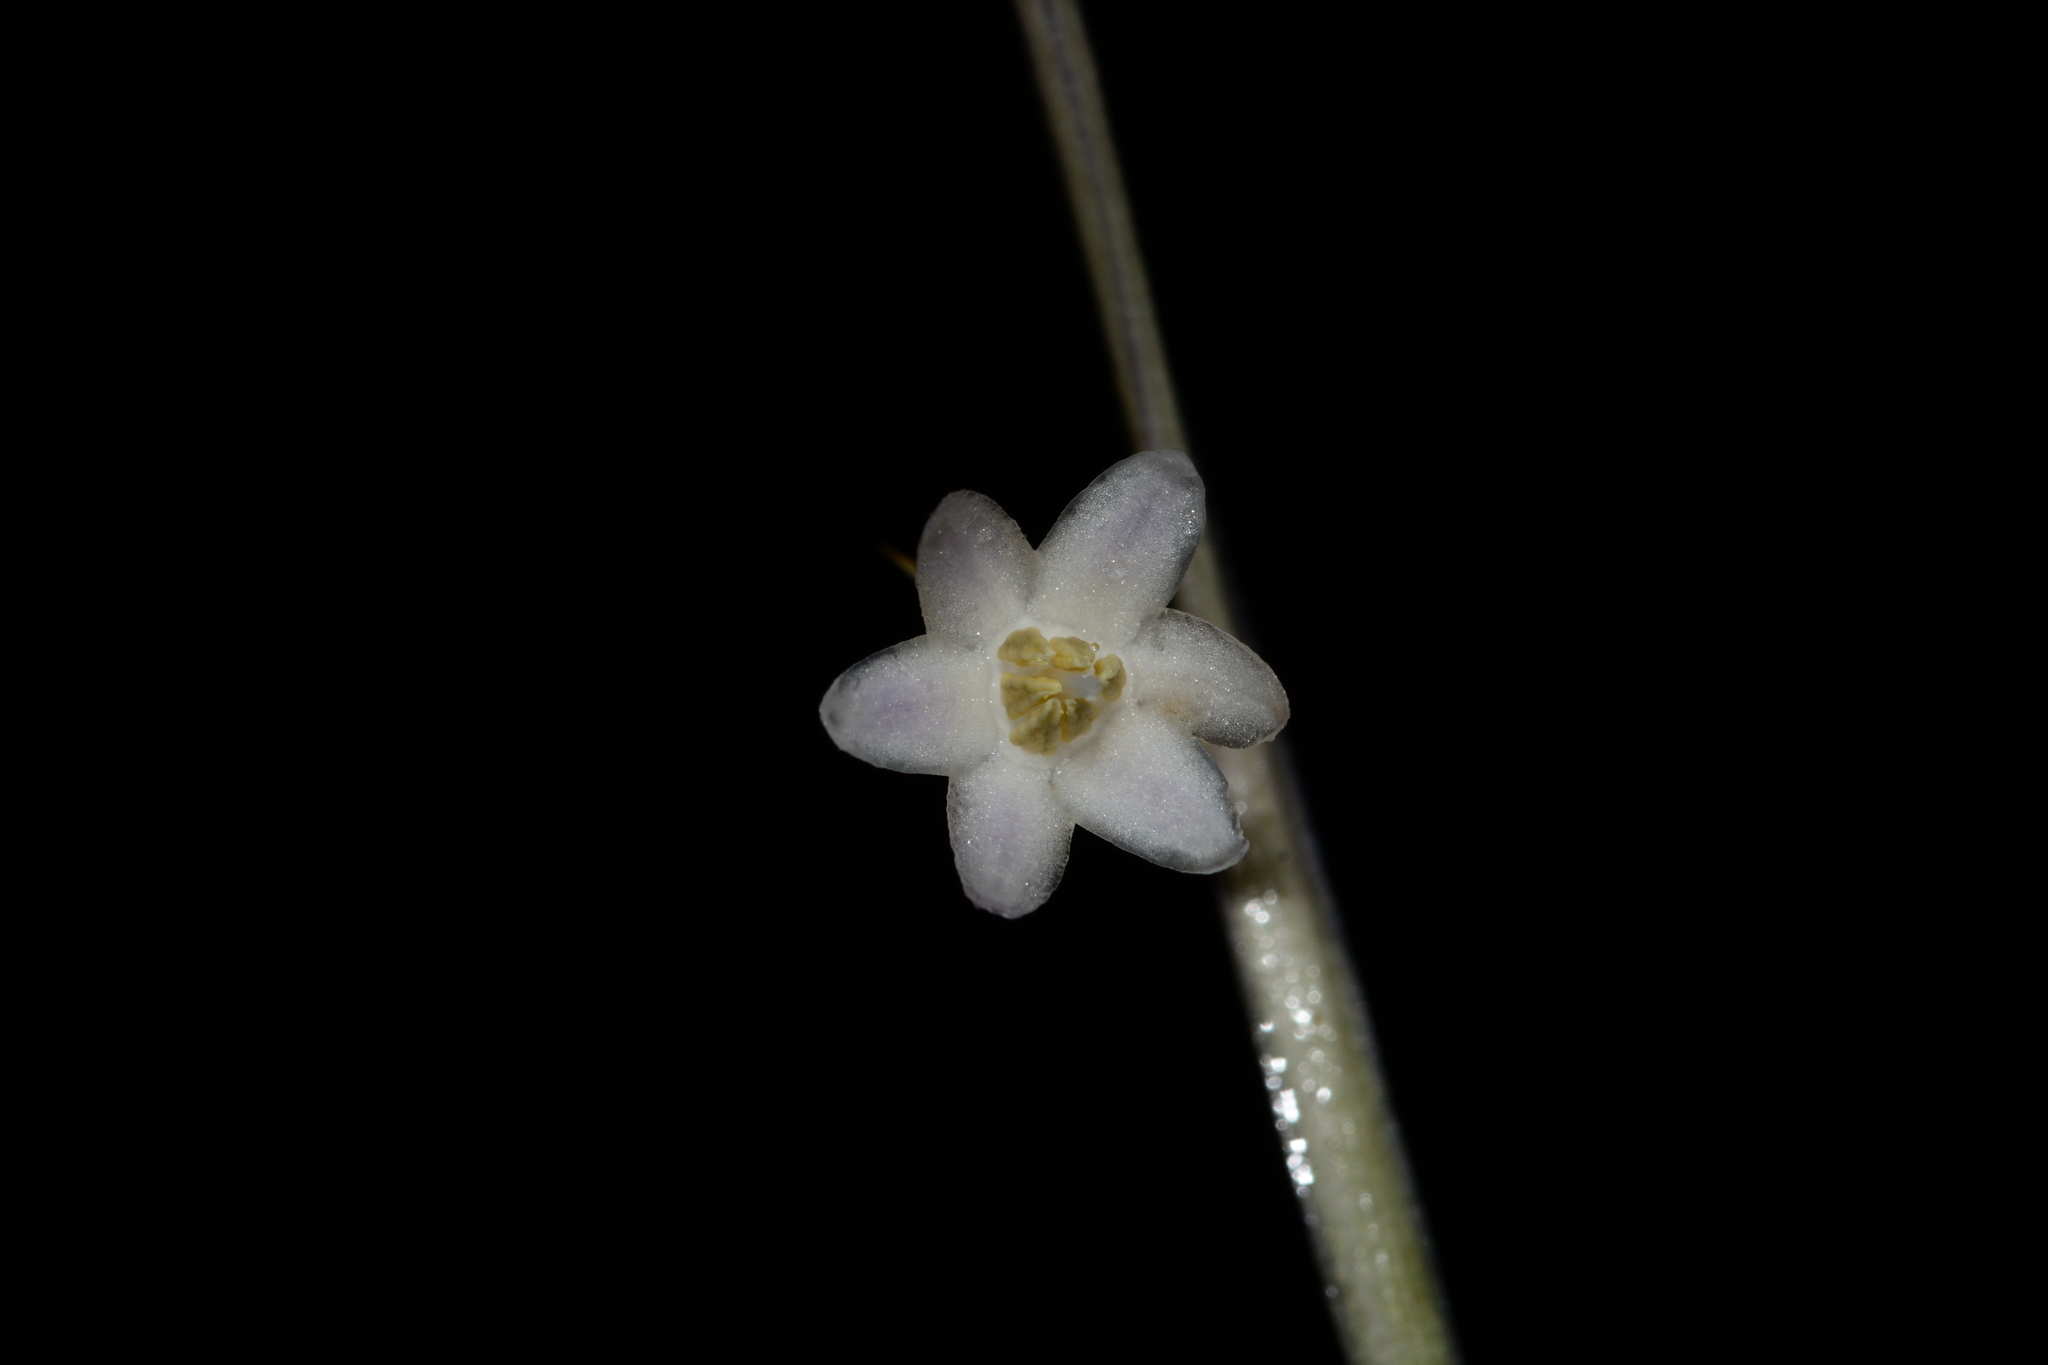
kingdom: Plantae
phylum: Tracheophyta
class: Liliopsida
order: Asparagales
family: Asparagaceae
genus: Ophiopogon
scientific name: Ophiopogon intermedius
